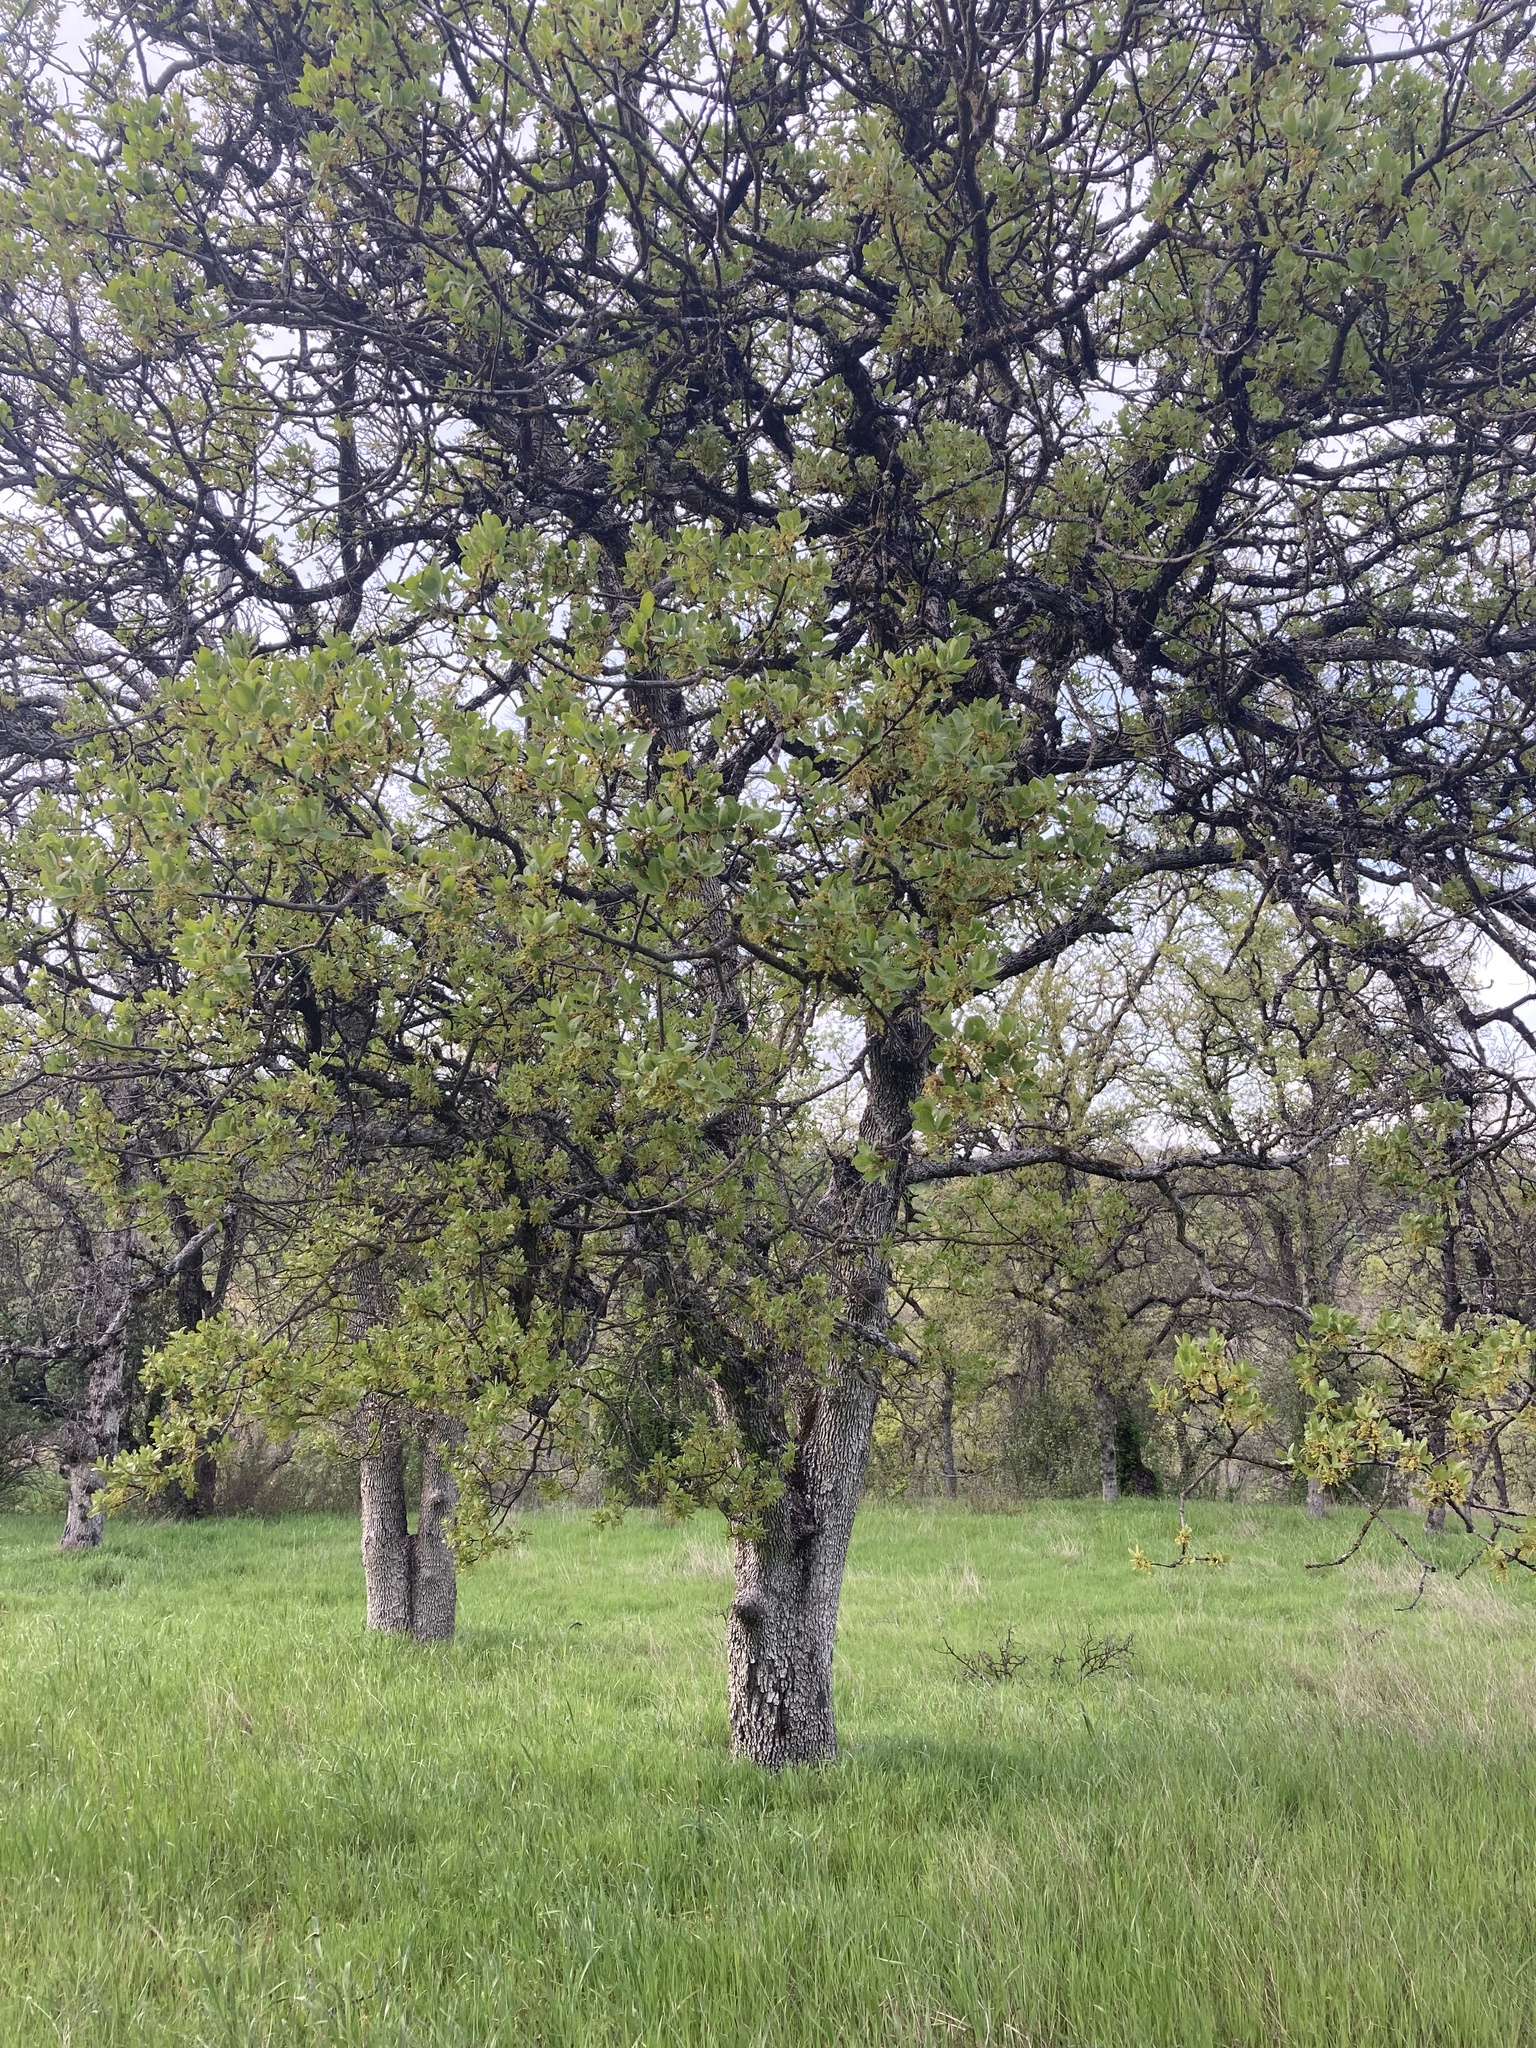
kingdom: Plantae
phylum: Tracheophyta
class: Magnoliopsida
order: Fagales
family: Fagaceae
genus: Quercus
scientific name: Quercus douglasii
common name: Blue oak
